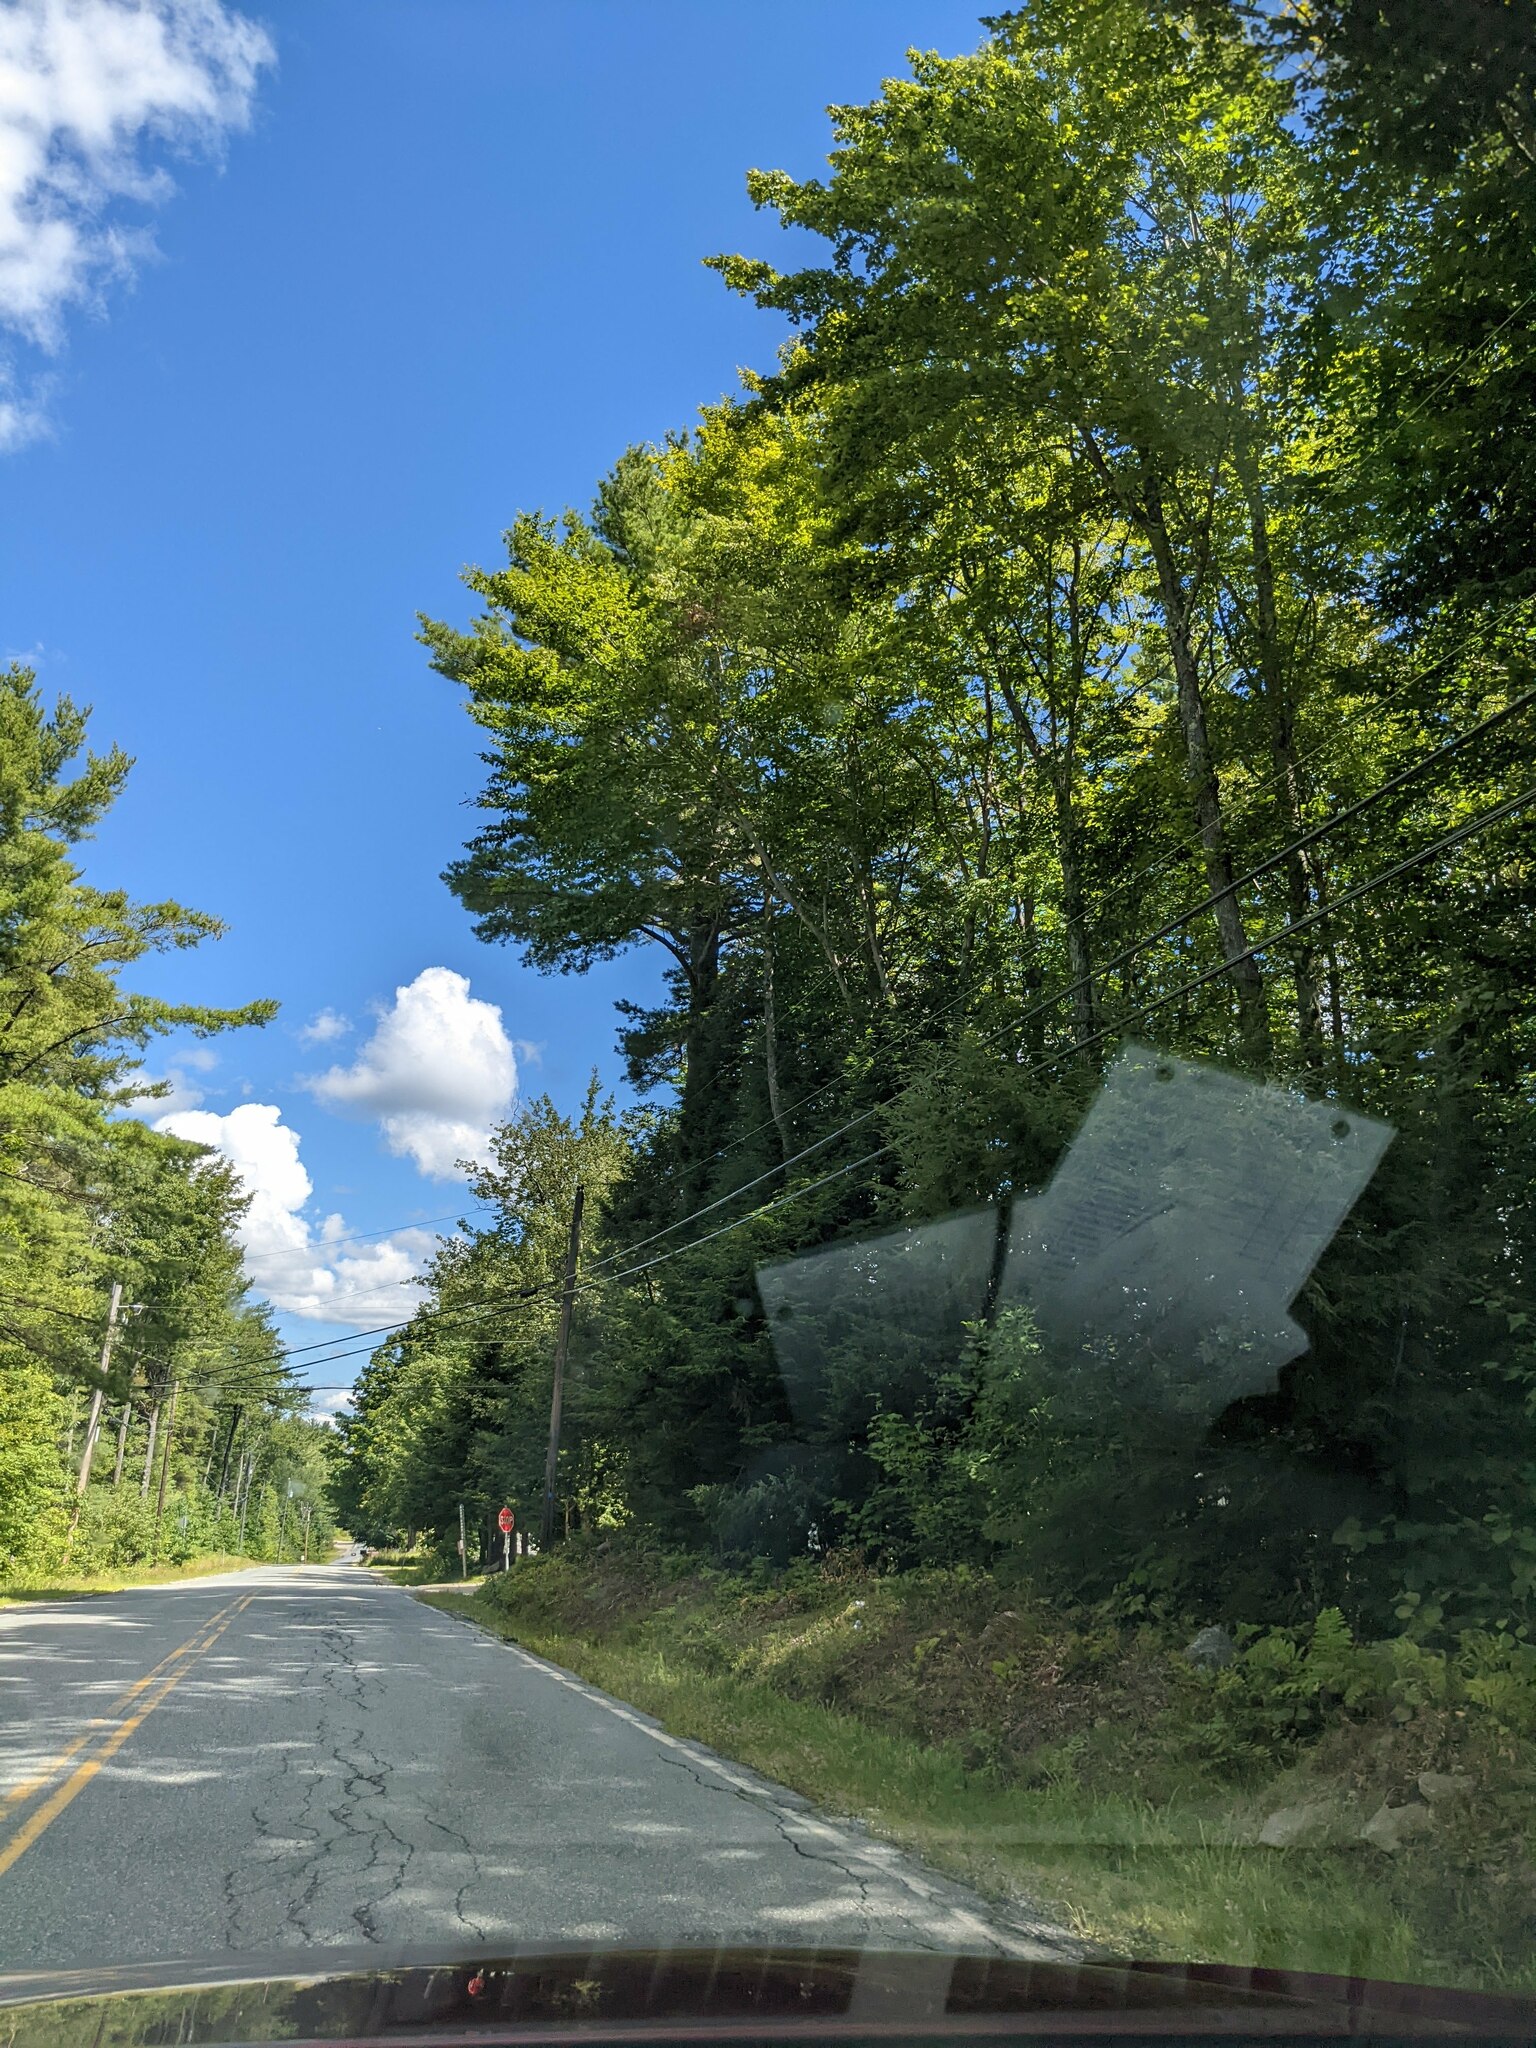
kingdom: Plantae
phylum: Tracheophyta
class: Pinopsida
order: Pinales
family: Pinaceae
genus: Pinus
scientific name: Pinus strobus
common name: Weymouth pine
